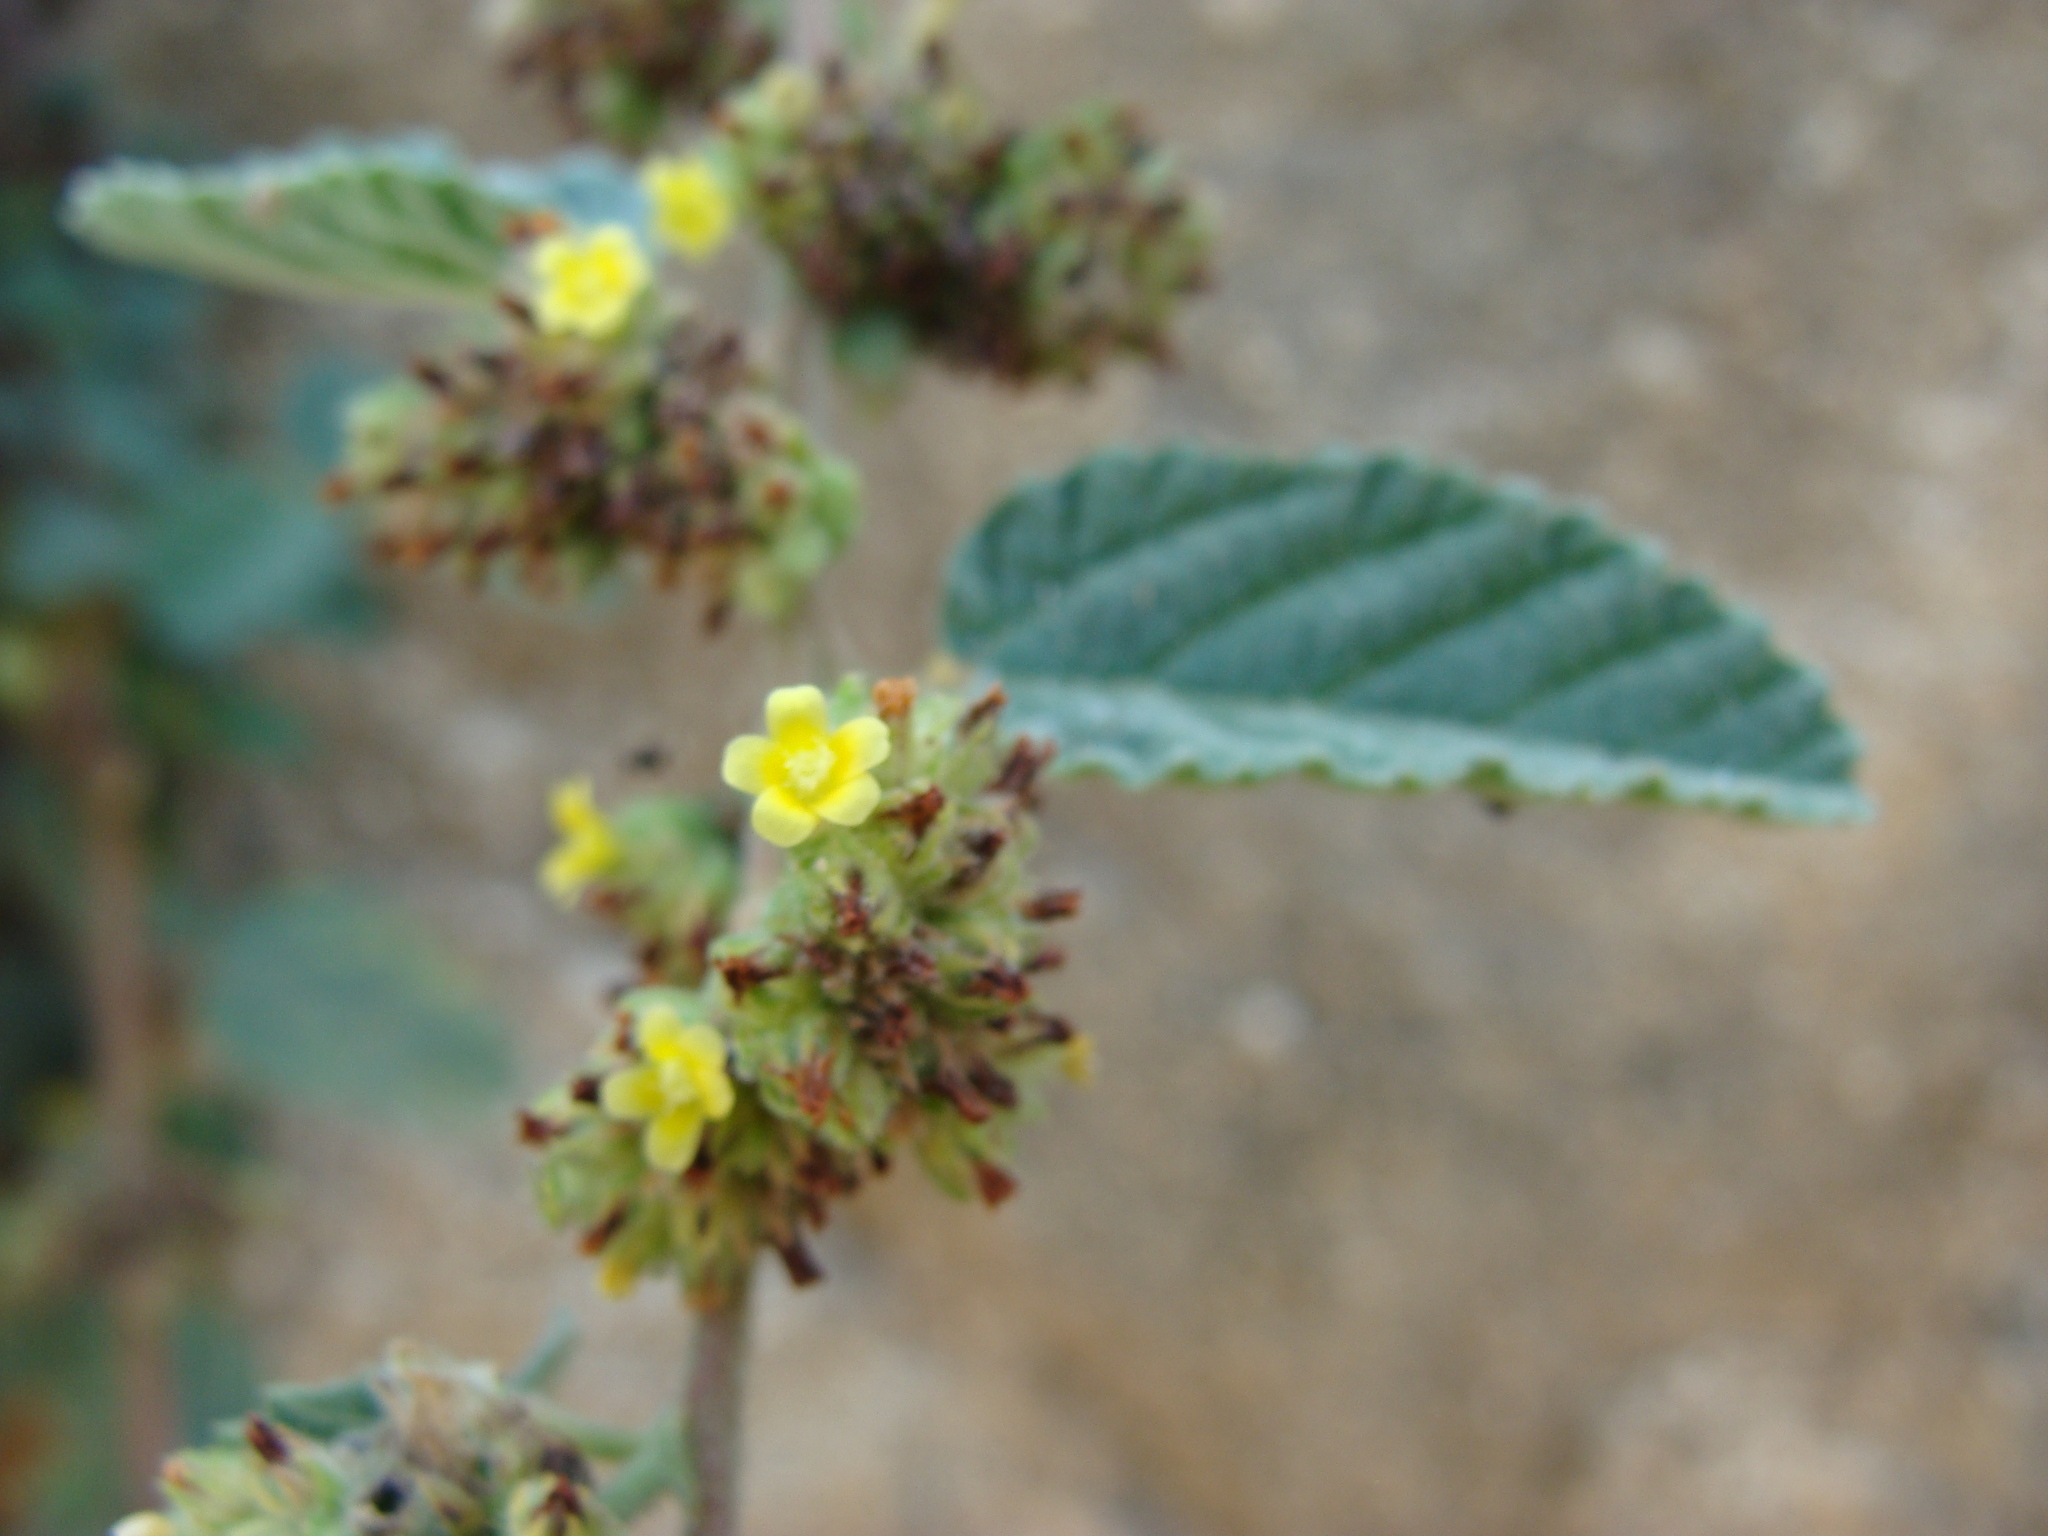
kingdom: Plantae
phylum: Tracheophyta
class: Magnoliopsida
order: Malvales
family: Malvaceae
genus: Waltheria
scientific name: Waltheria indica
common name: Leather-coat
